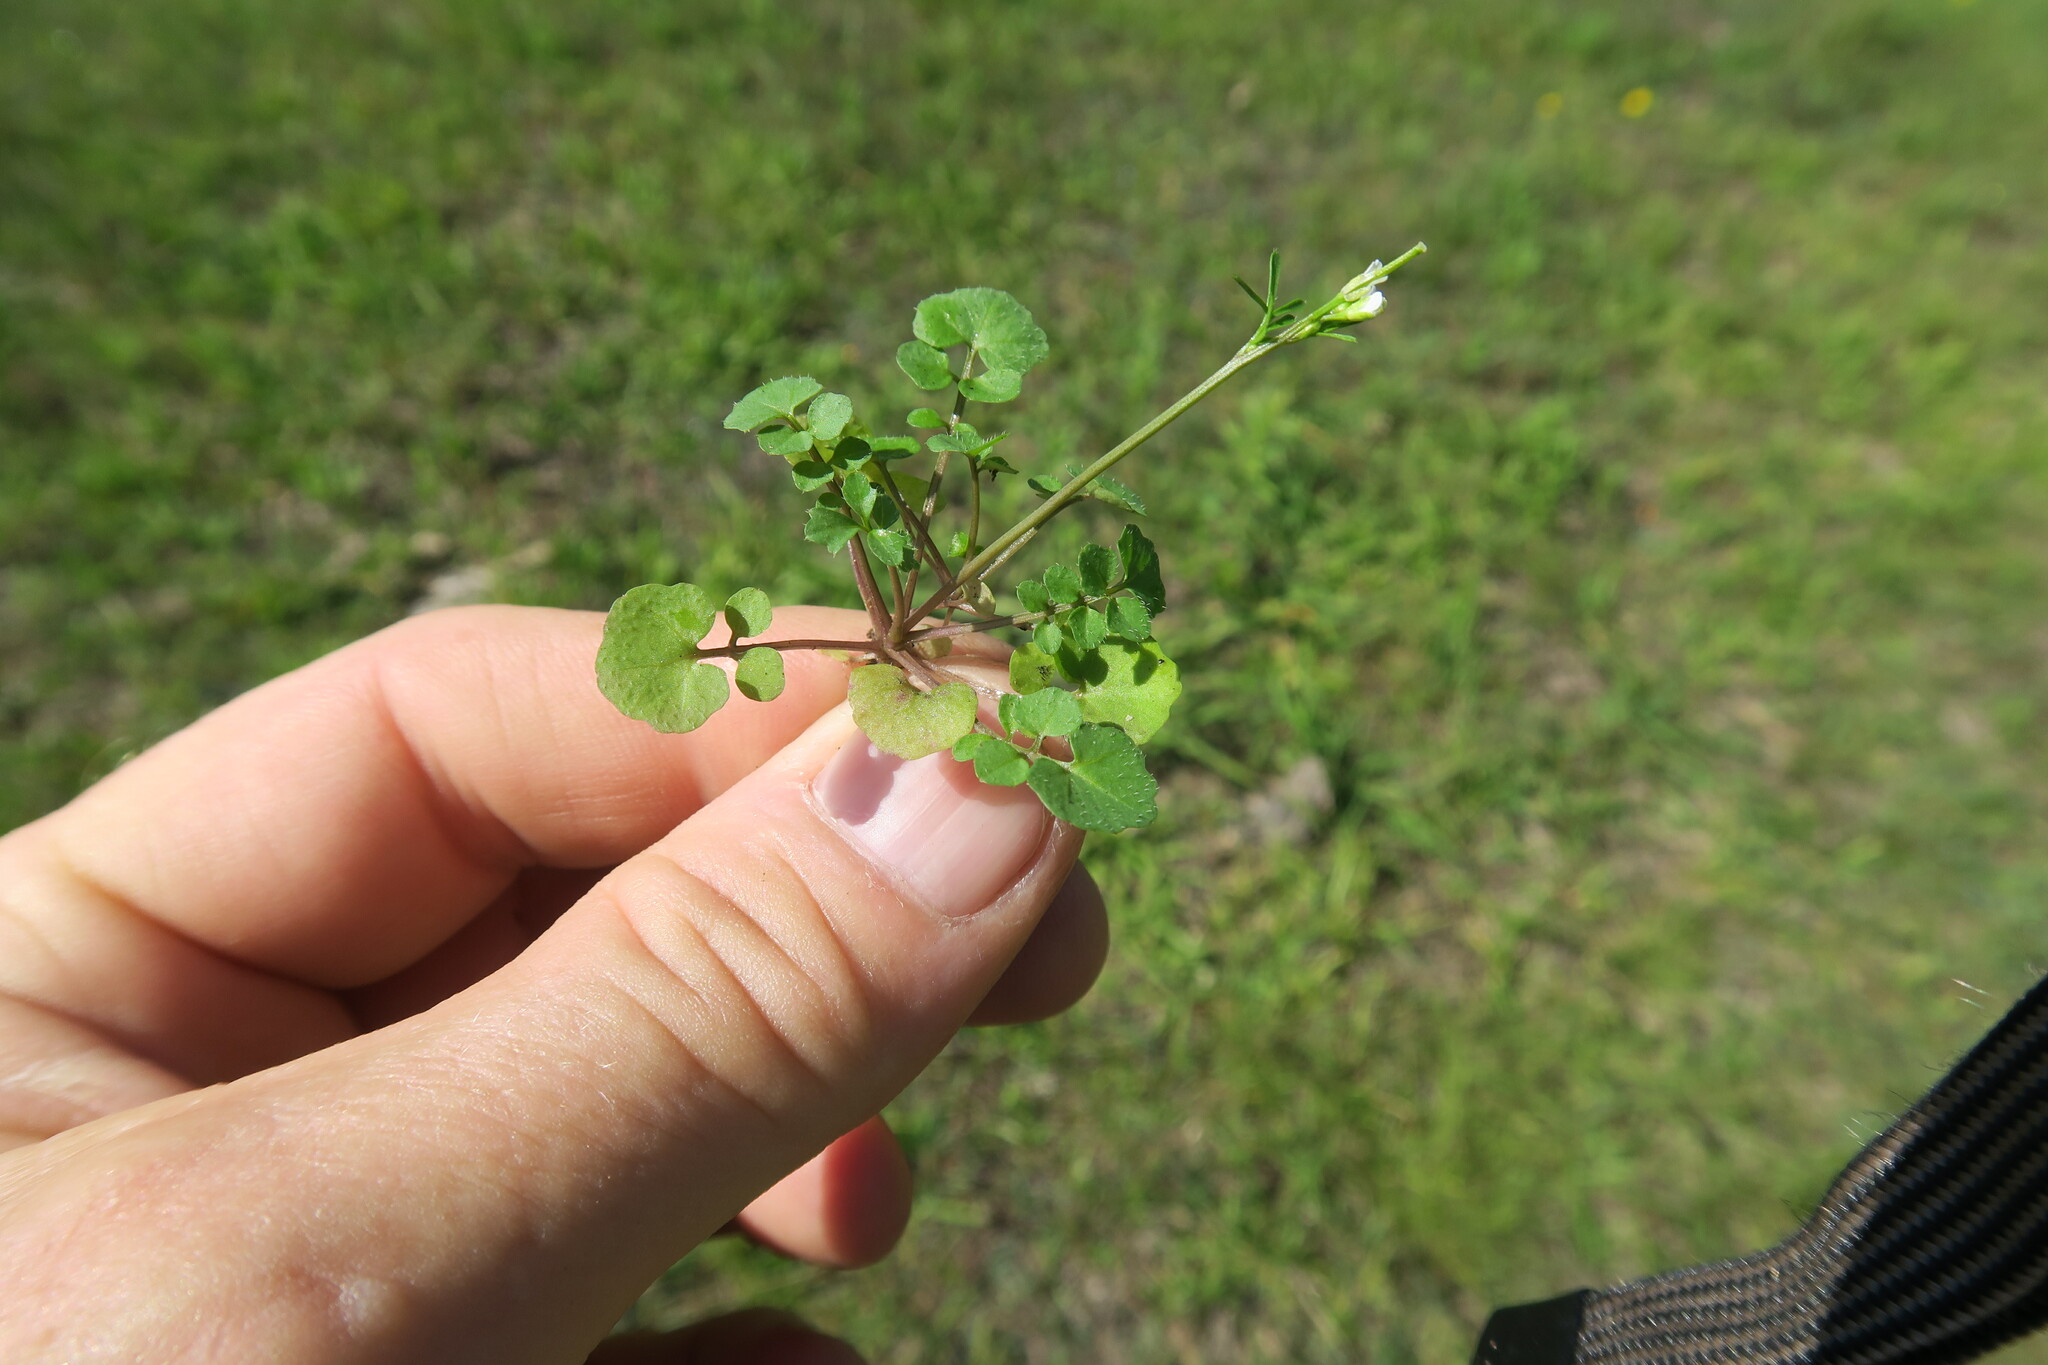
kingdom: Plantae
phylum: Tracheophyta
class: Magnoliopsida
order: Brassicales
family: Brassicaceae
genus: Cardamine
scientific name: Cardamine hirsuta
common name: Hairy bittercress
